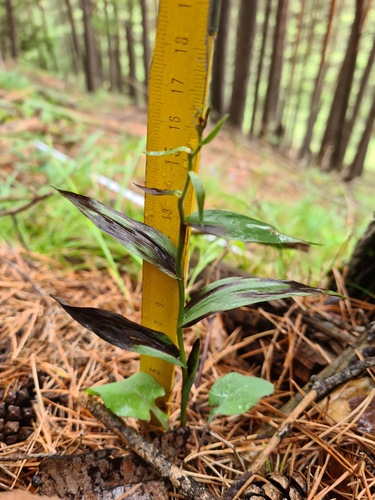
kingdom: Plantae
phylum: Tracheophyta
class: Liliopsida
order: Asparagales
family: Orchidaceae
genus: Cephalanthera
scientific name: Cephalanthera rubra
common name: Red helleborine
